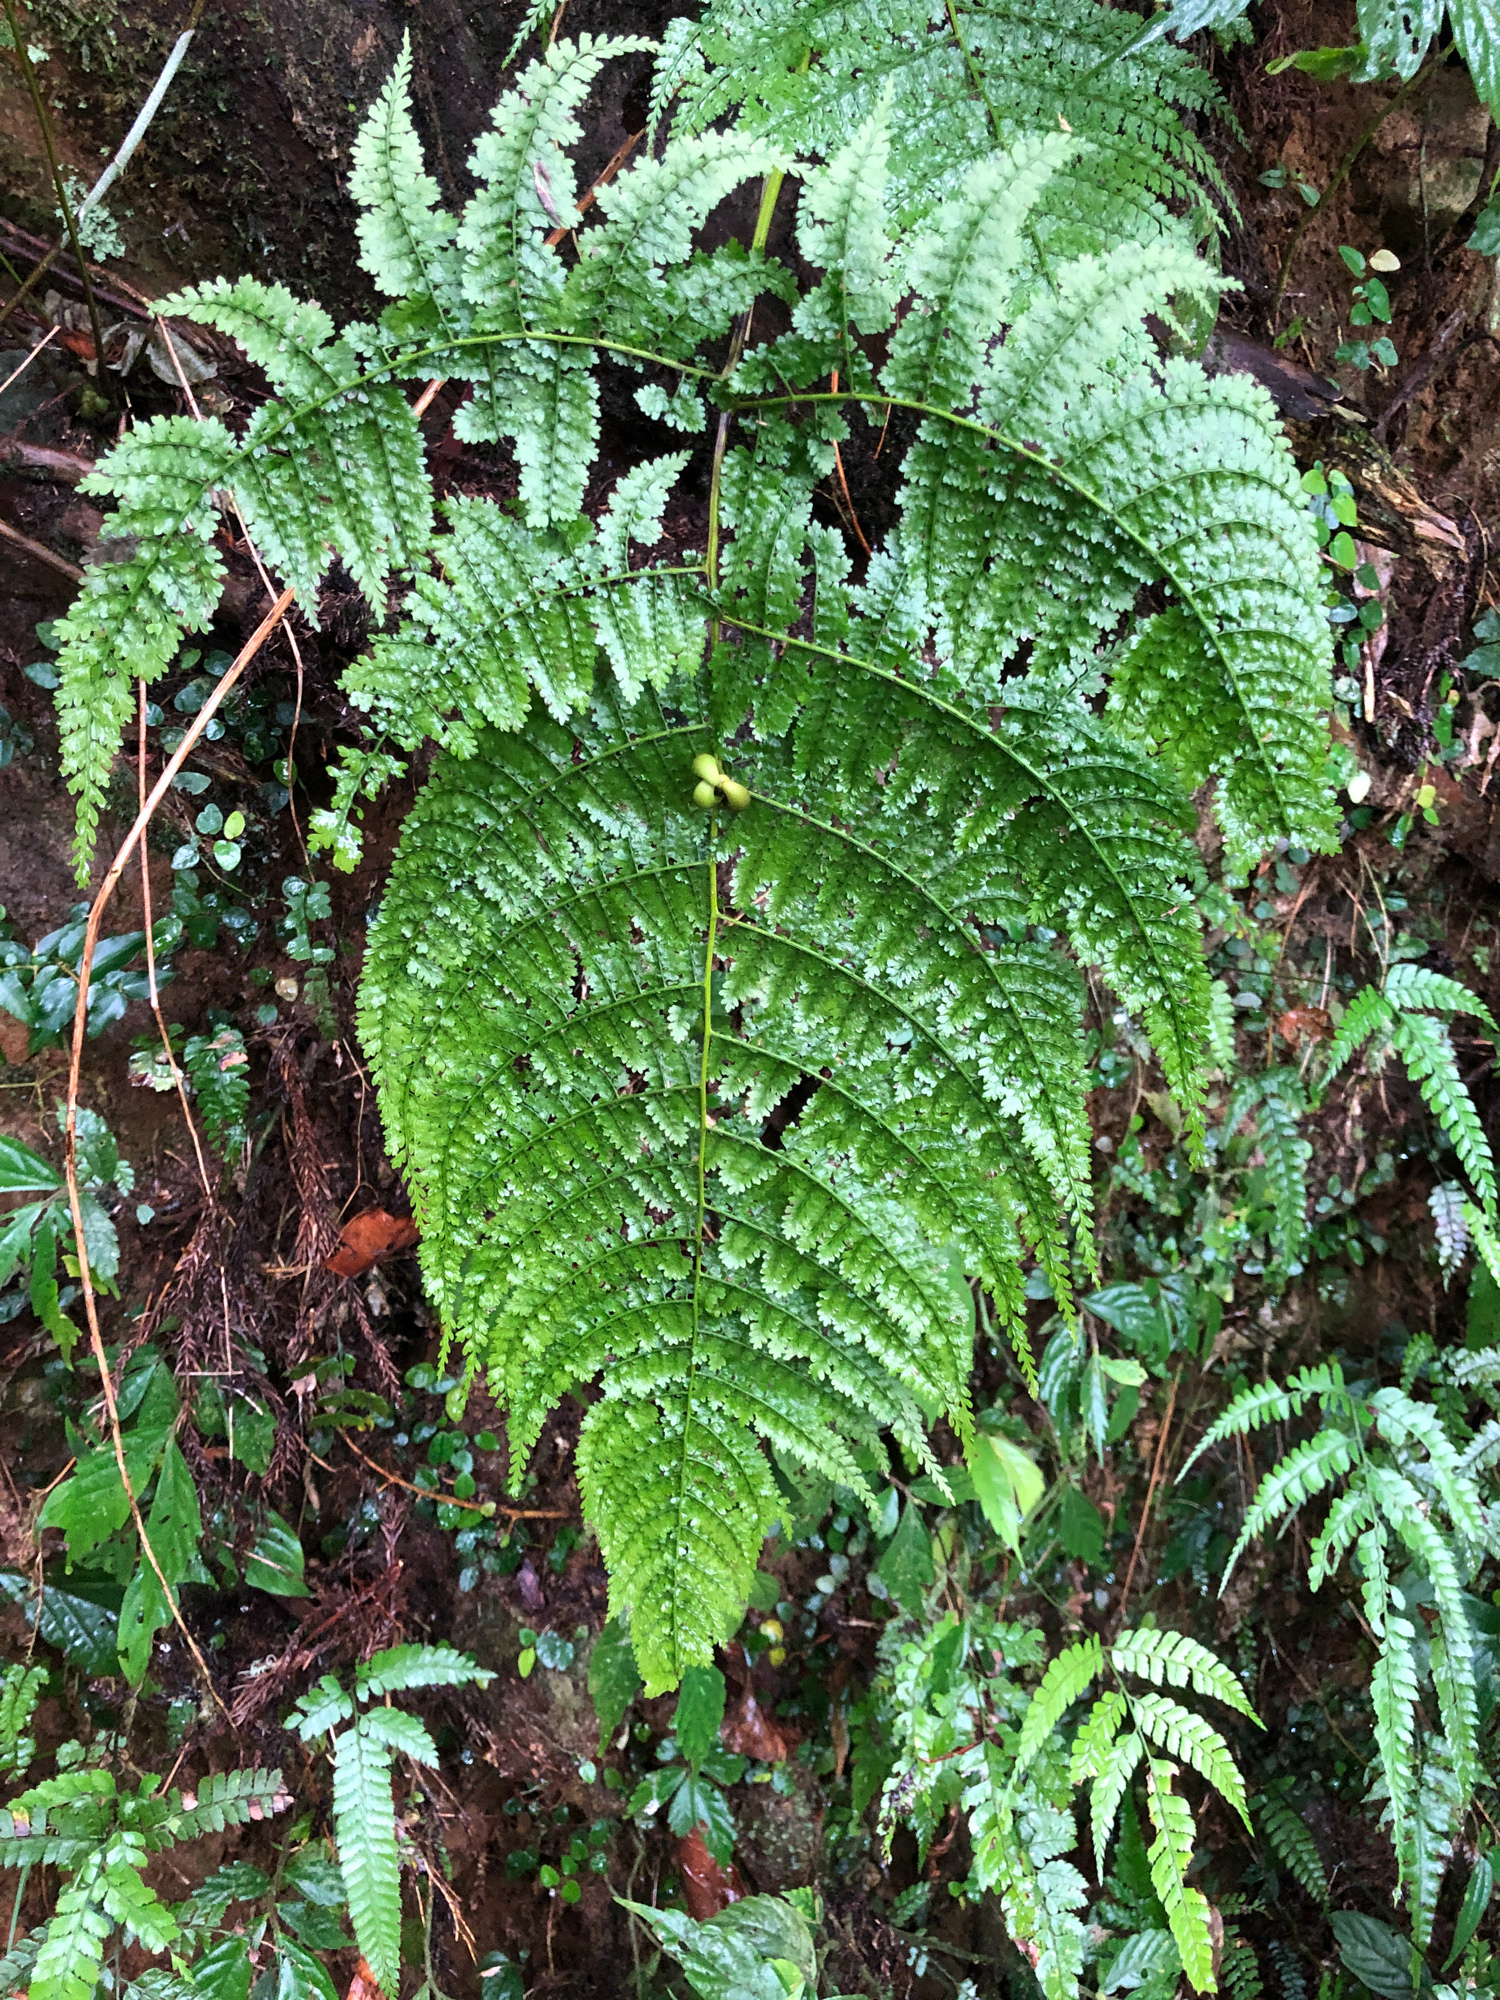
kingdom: Plantae
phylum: Tracheophyta
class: Polypodiopsida
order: Polypodiales
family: Dennstaedtiaceae
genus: Monachosorum
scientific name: Monachosorum henryi
